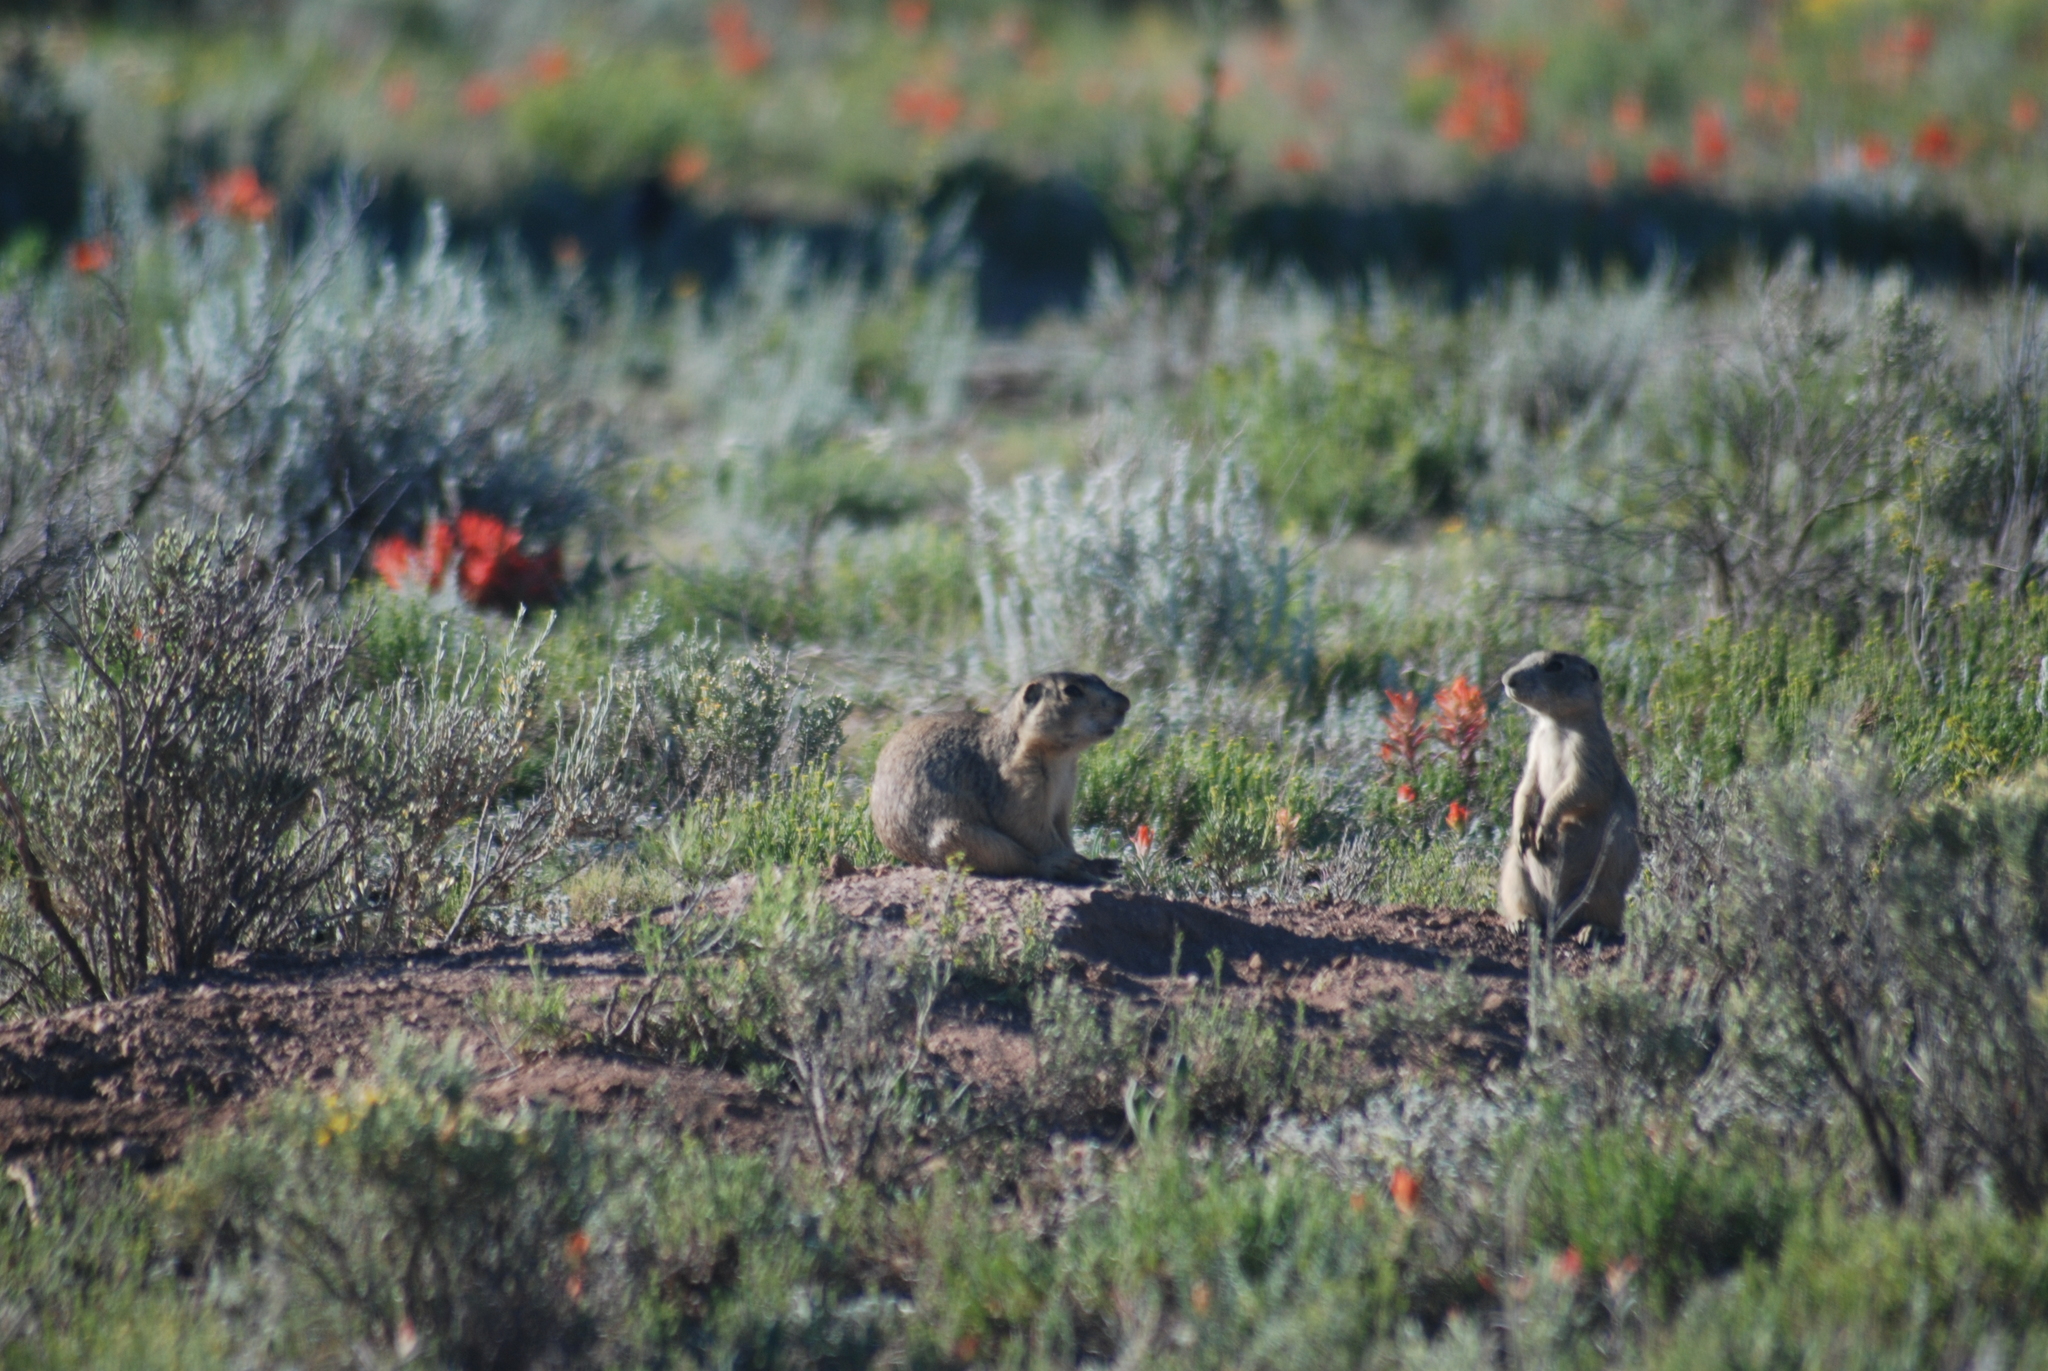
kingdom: Animalia
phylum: Chordata
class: Mammalia
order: Rodentia
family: Sciuridae
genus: Cynomys
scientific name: Cynomys gunnisoni
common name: Gunnison's prairie dog
